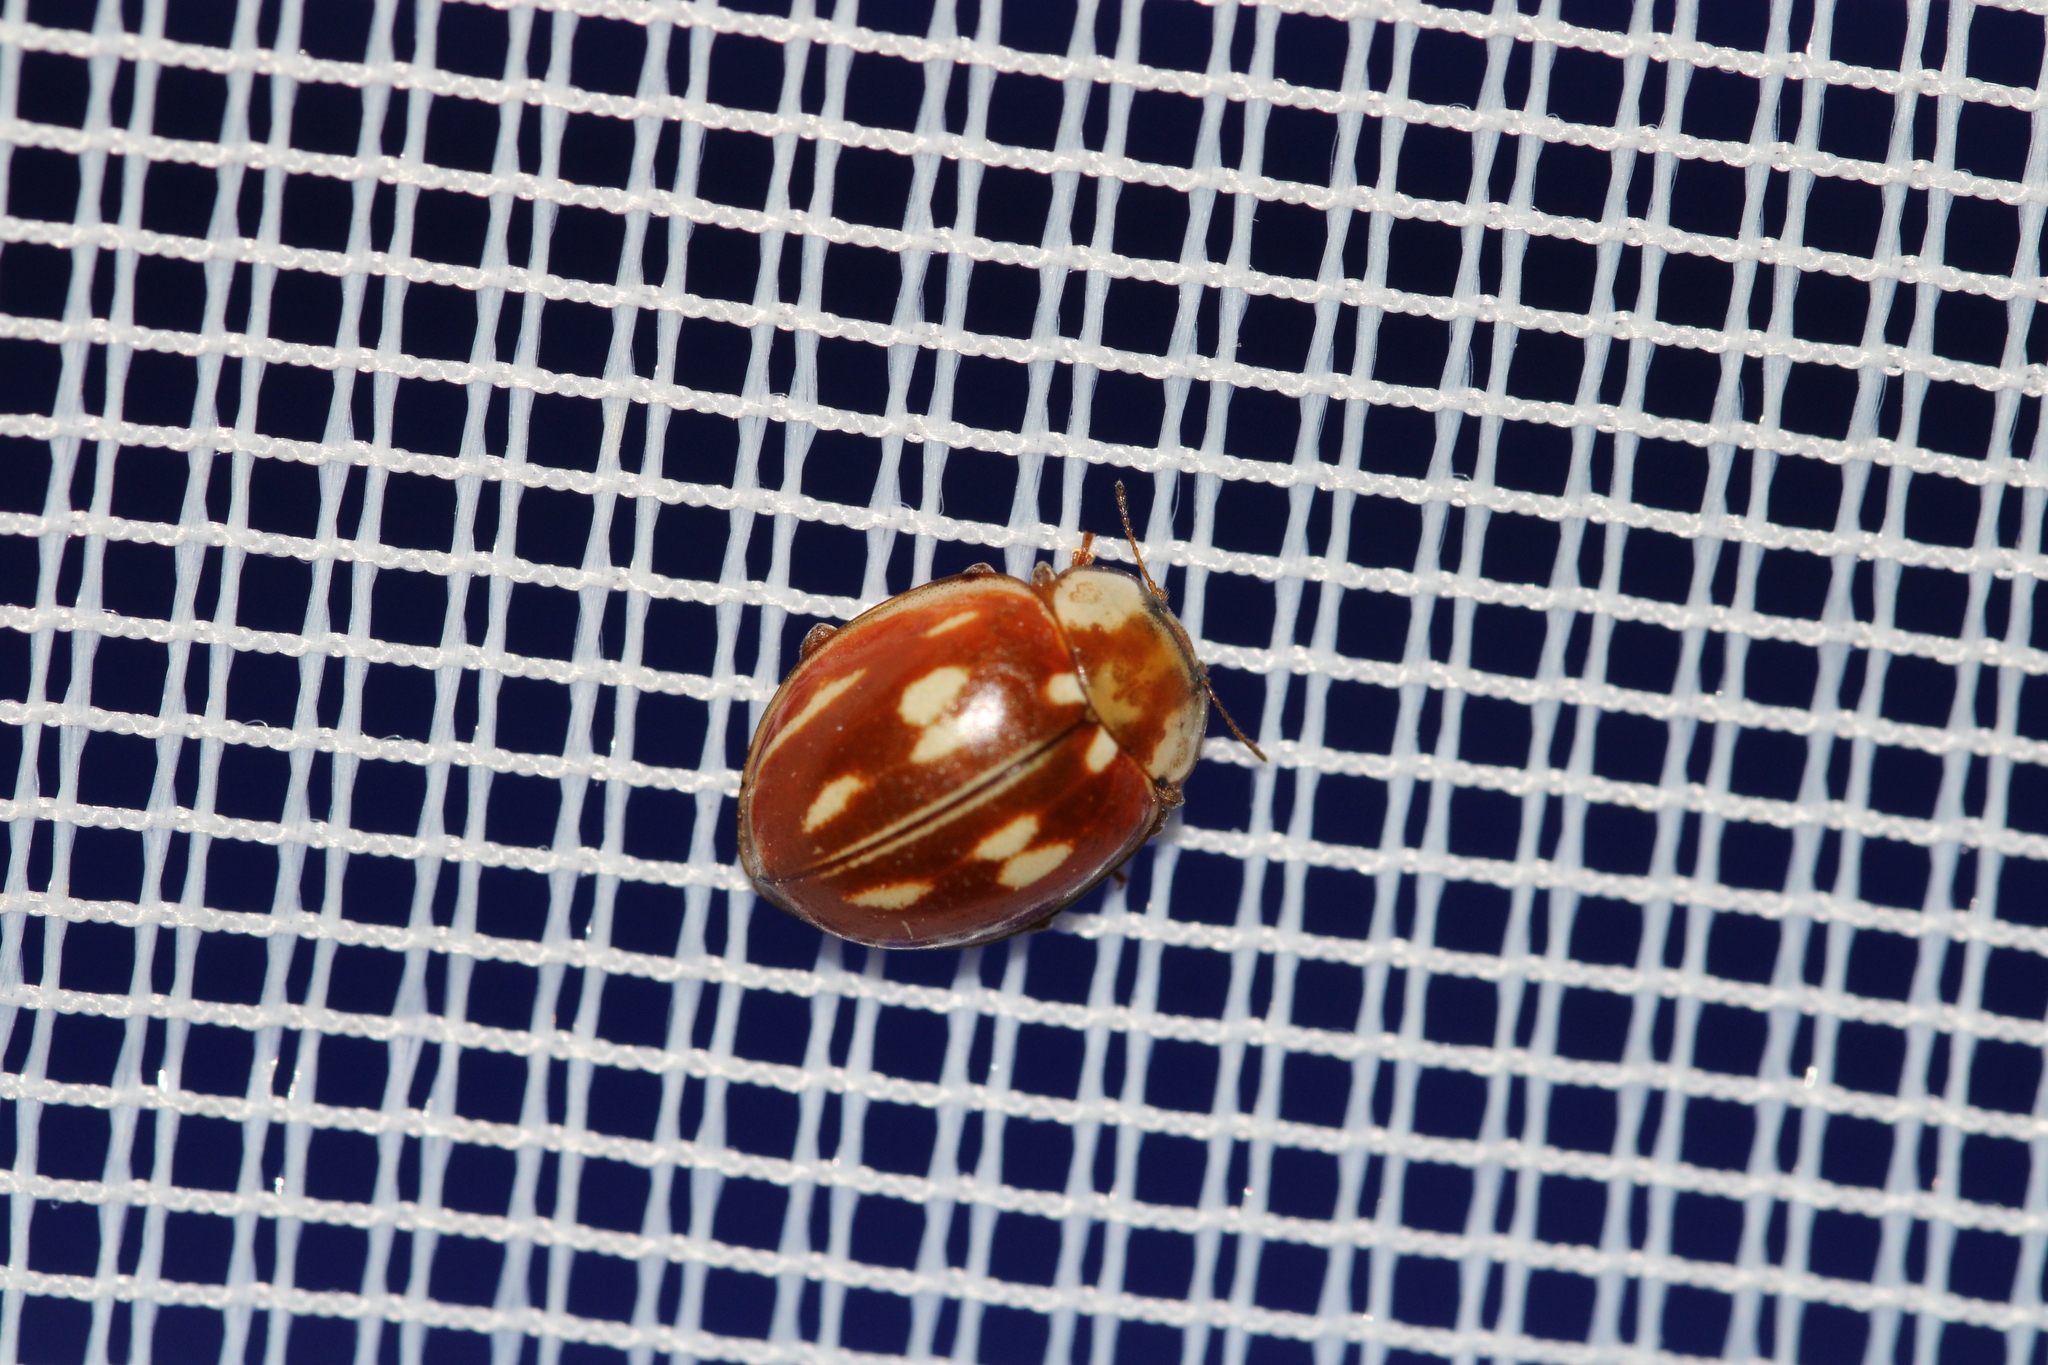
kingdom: Animalia
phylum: Arthropoda
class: Insecta
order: Coleoptera
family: Coccinellidae
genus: Myzia
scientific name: Myzia oblongoguttata
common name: Striped ladybird
